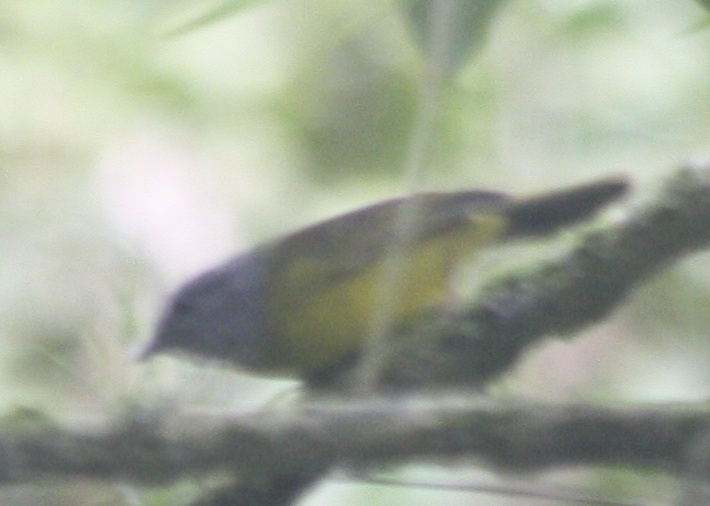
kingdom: Animalia
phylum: Chordata
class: Aves
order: Passeriformes
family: Parulidae
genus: Myiothlypis
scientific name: Myiothlypis coronata
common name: Russet-crowned warbler
